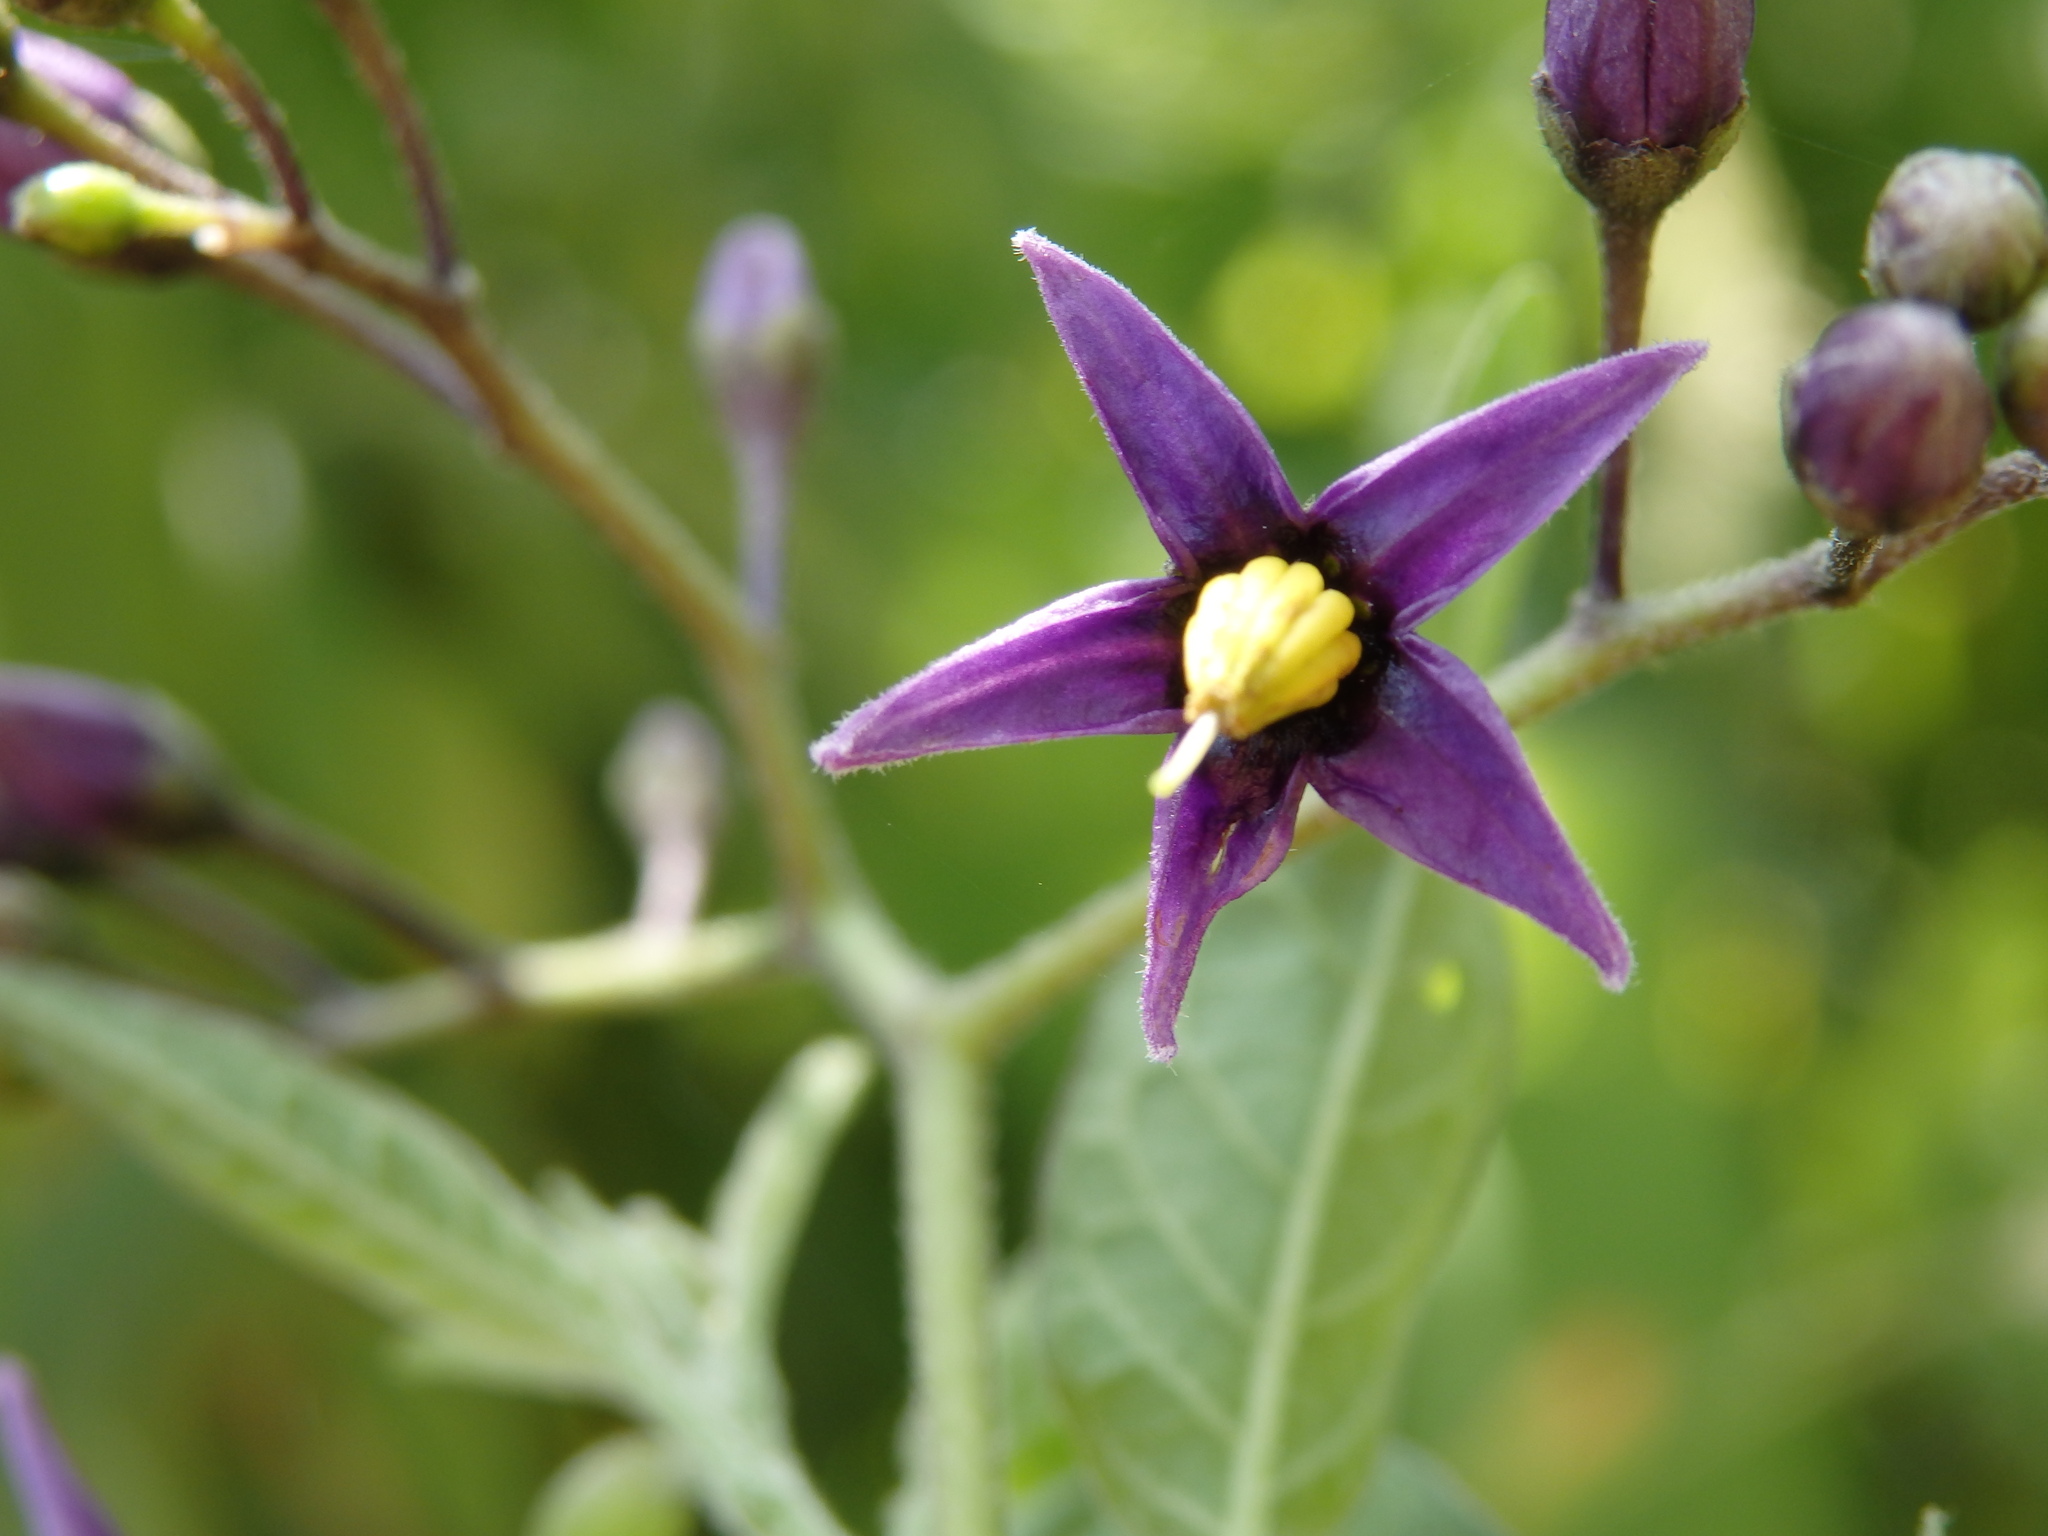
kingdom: Plantae
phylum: Tracheophyta
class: Magnoliopsida
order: Solanales
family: Solanaceae
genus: Solanum
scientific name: Solanum dulcamara
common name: Climbing nightshade
